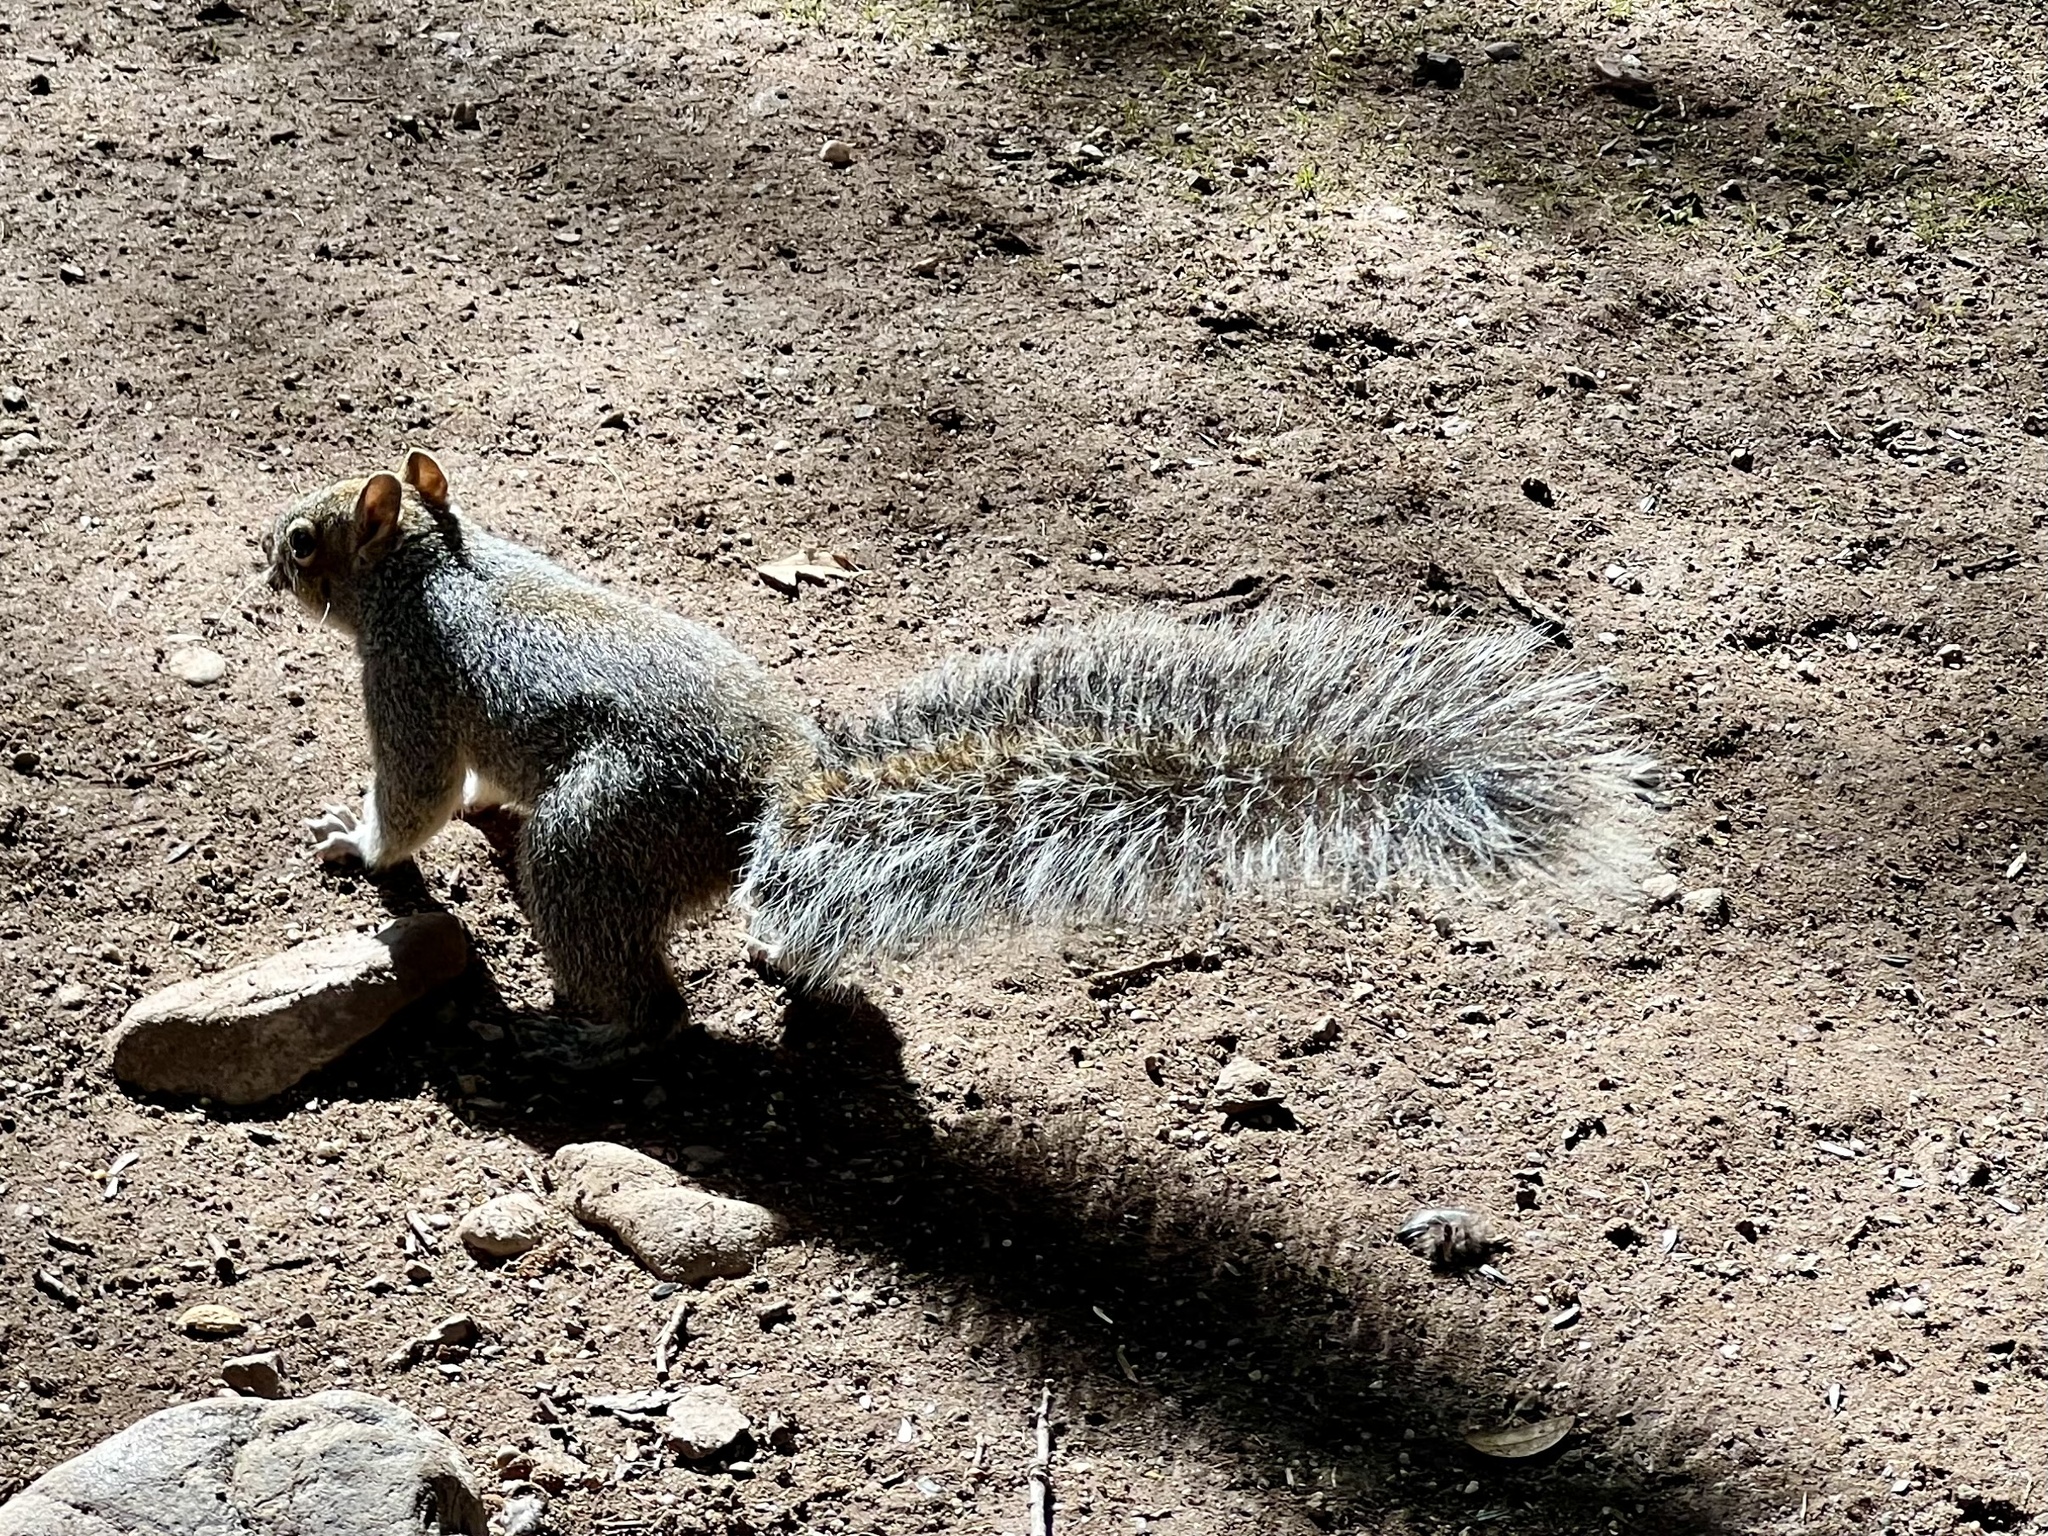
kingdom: Animalia
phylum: Chordata
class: Mammalia
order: Rodentia
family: Sciuridae
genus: Sciurus
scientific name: Sciurus arizonensis
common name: Arizona gray squirrel
